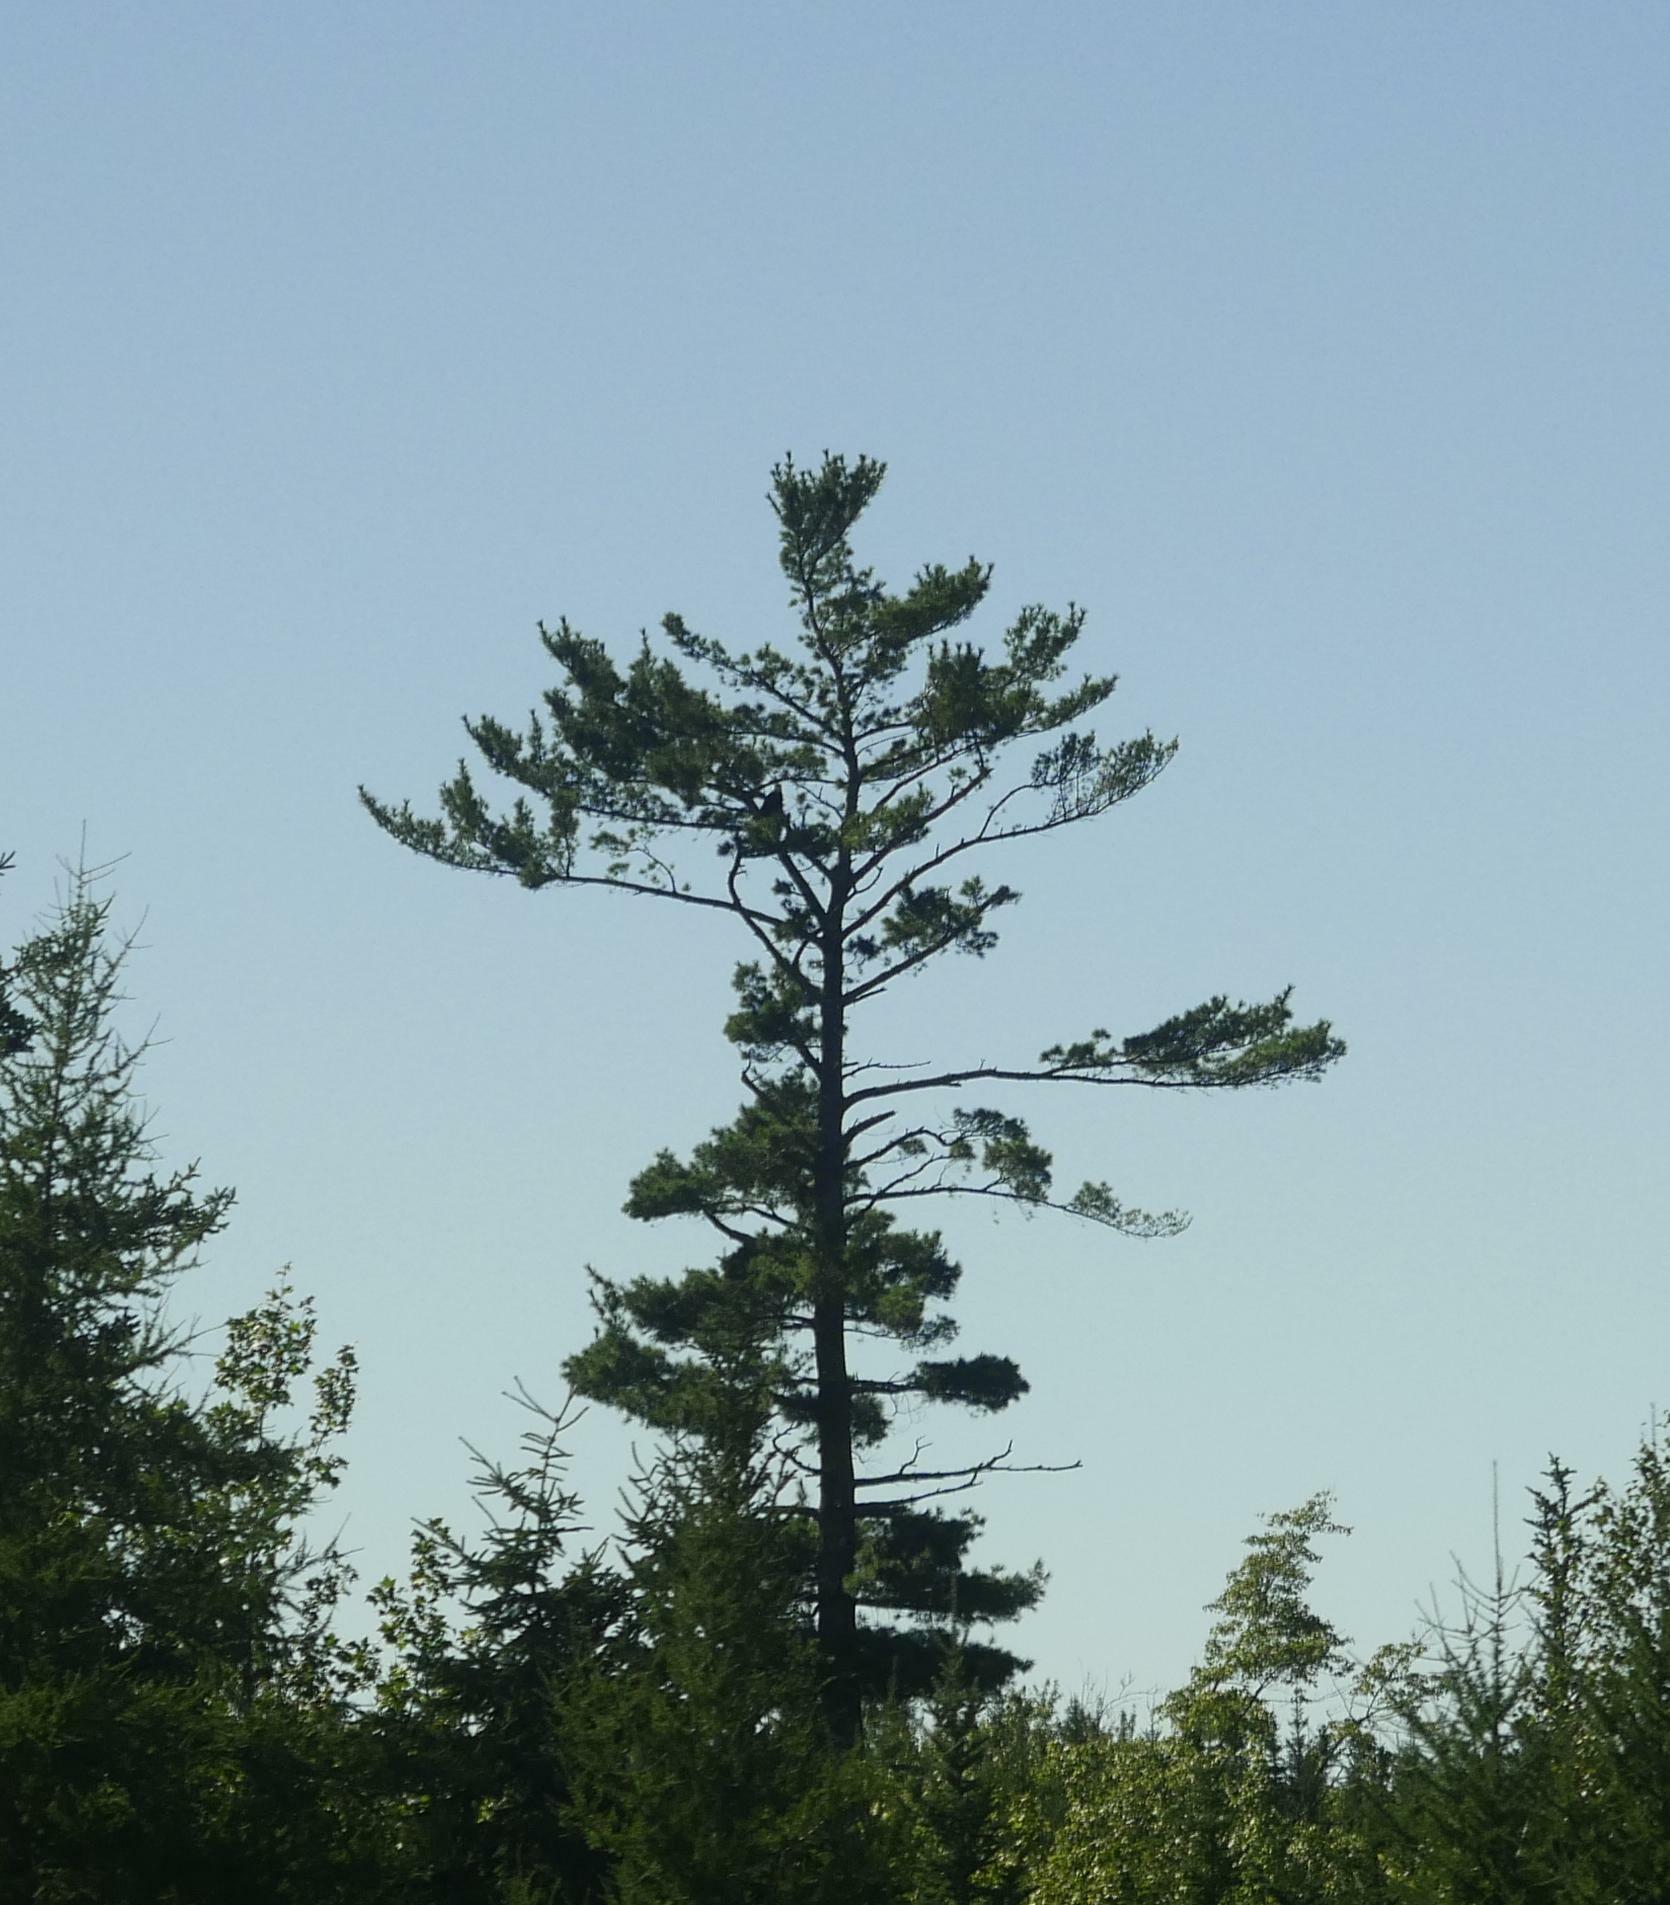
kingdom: Plantae
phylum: Tracheophyta
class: Pinopsida
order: Pinales
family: Pinaceae
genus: Pinus
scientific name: Pinus strobus
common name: Weymouth pine
